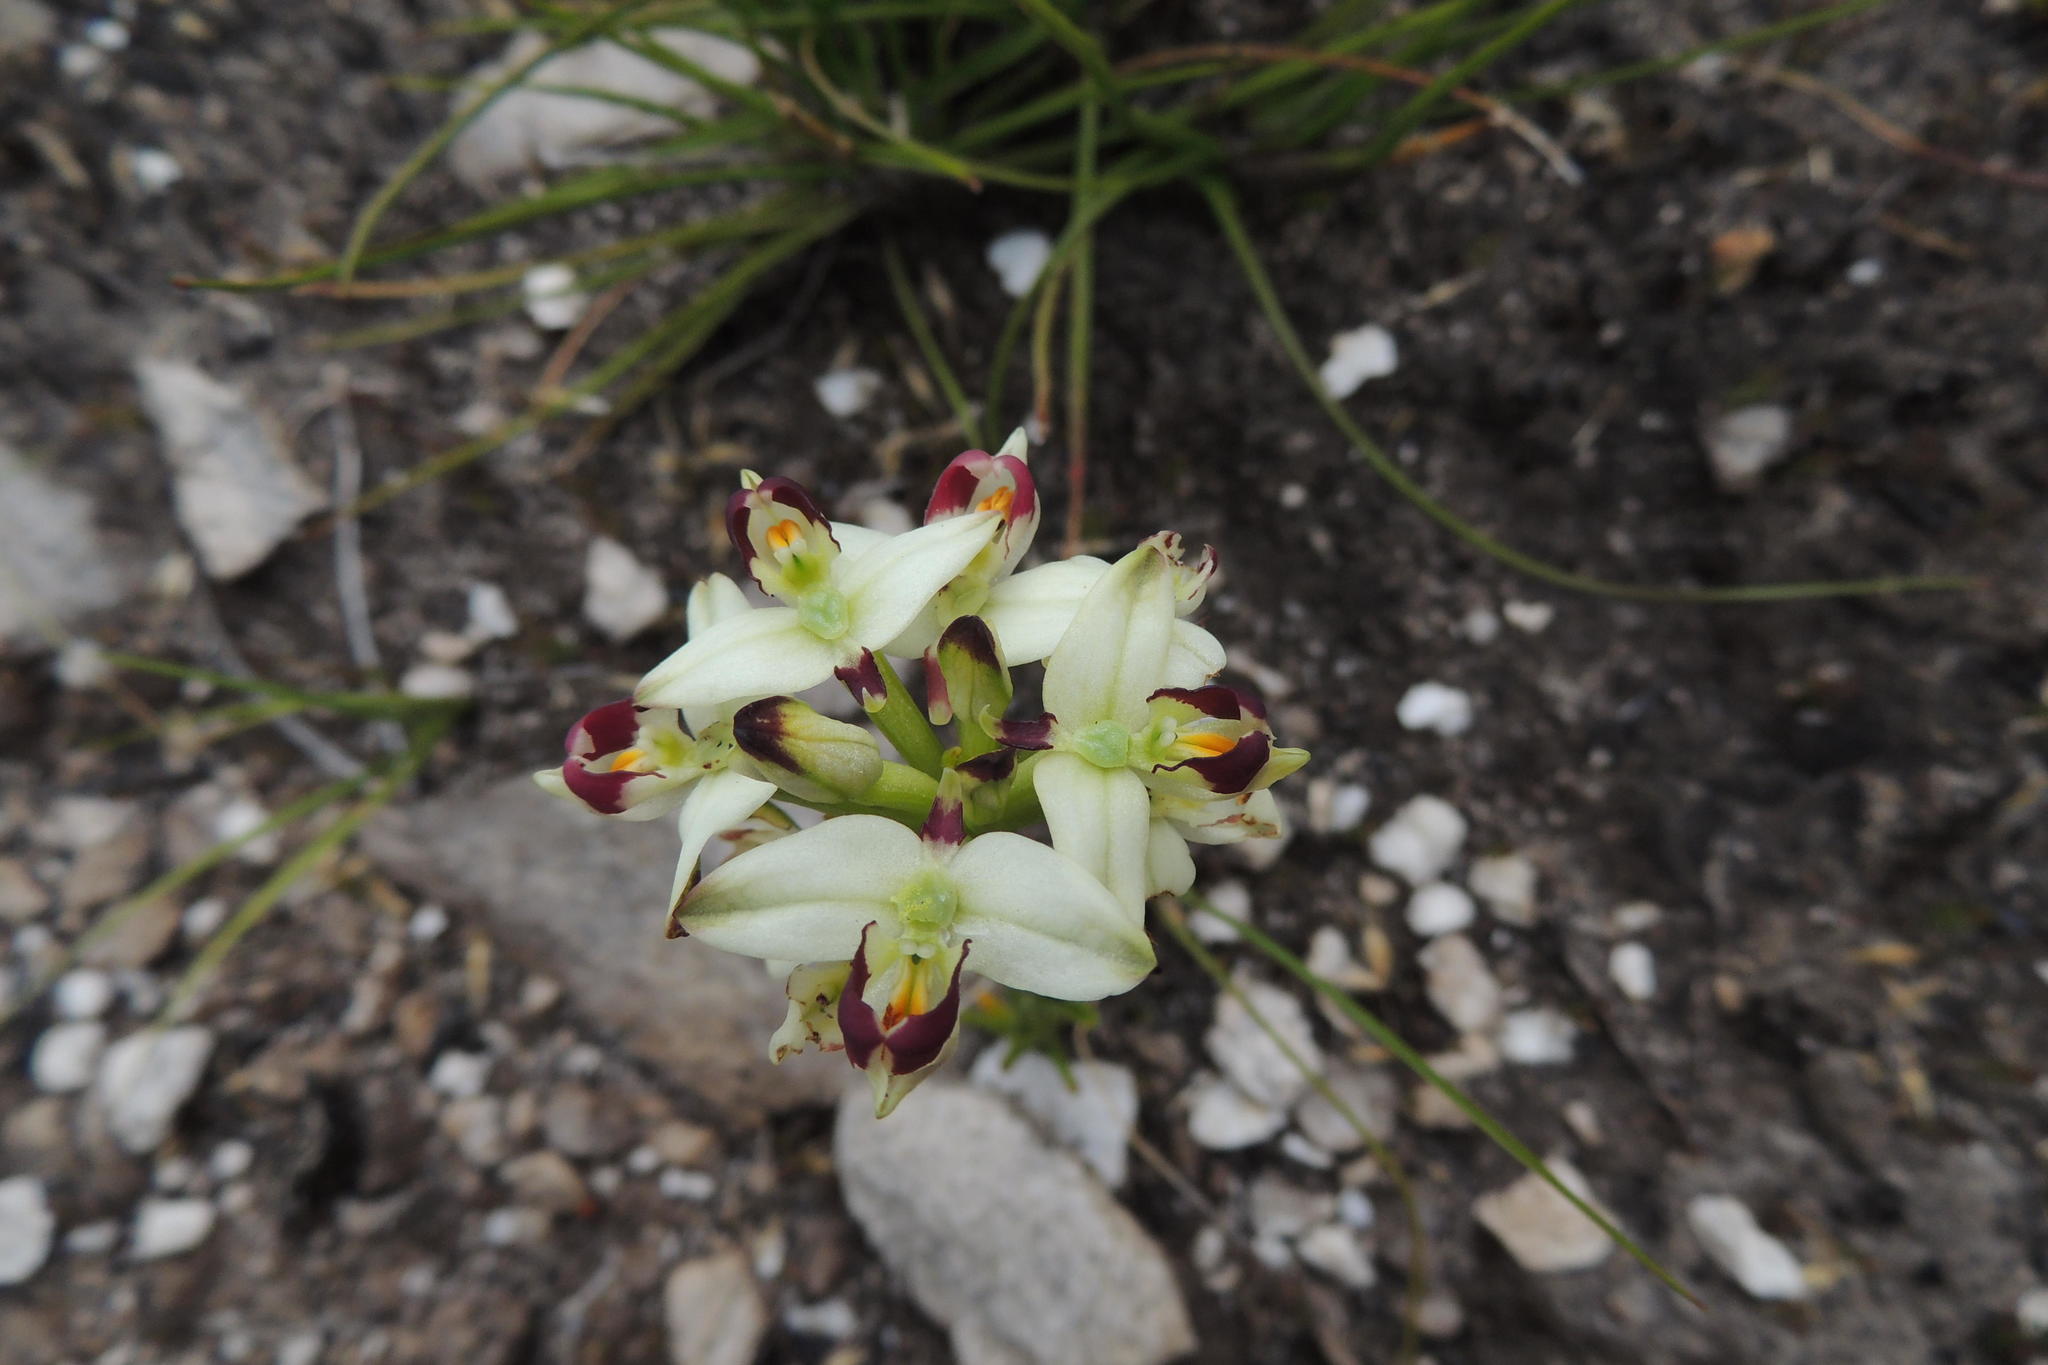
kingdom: Plantae
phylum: Tracheophyta
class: Liliopsida
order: Asparagales
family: Orchidaceae
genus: Disa
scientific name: Disa bivalvata
